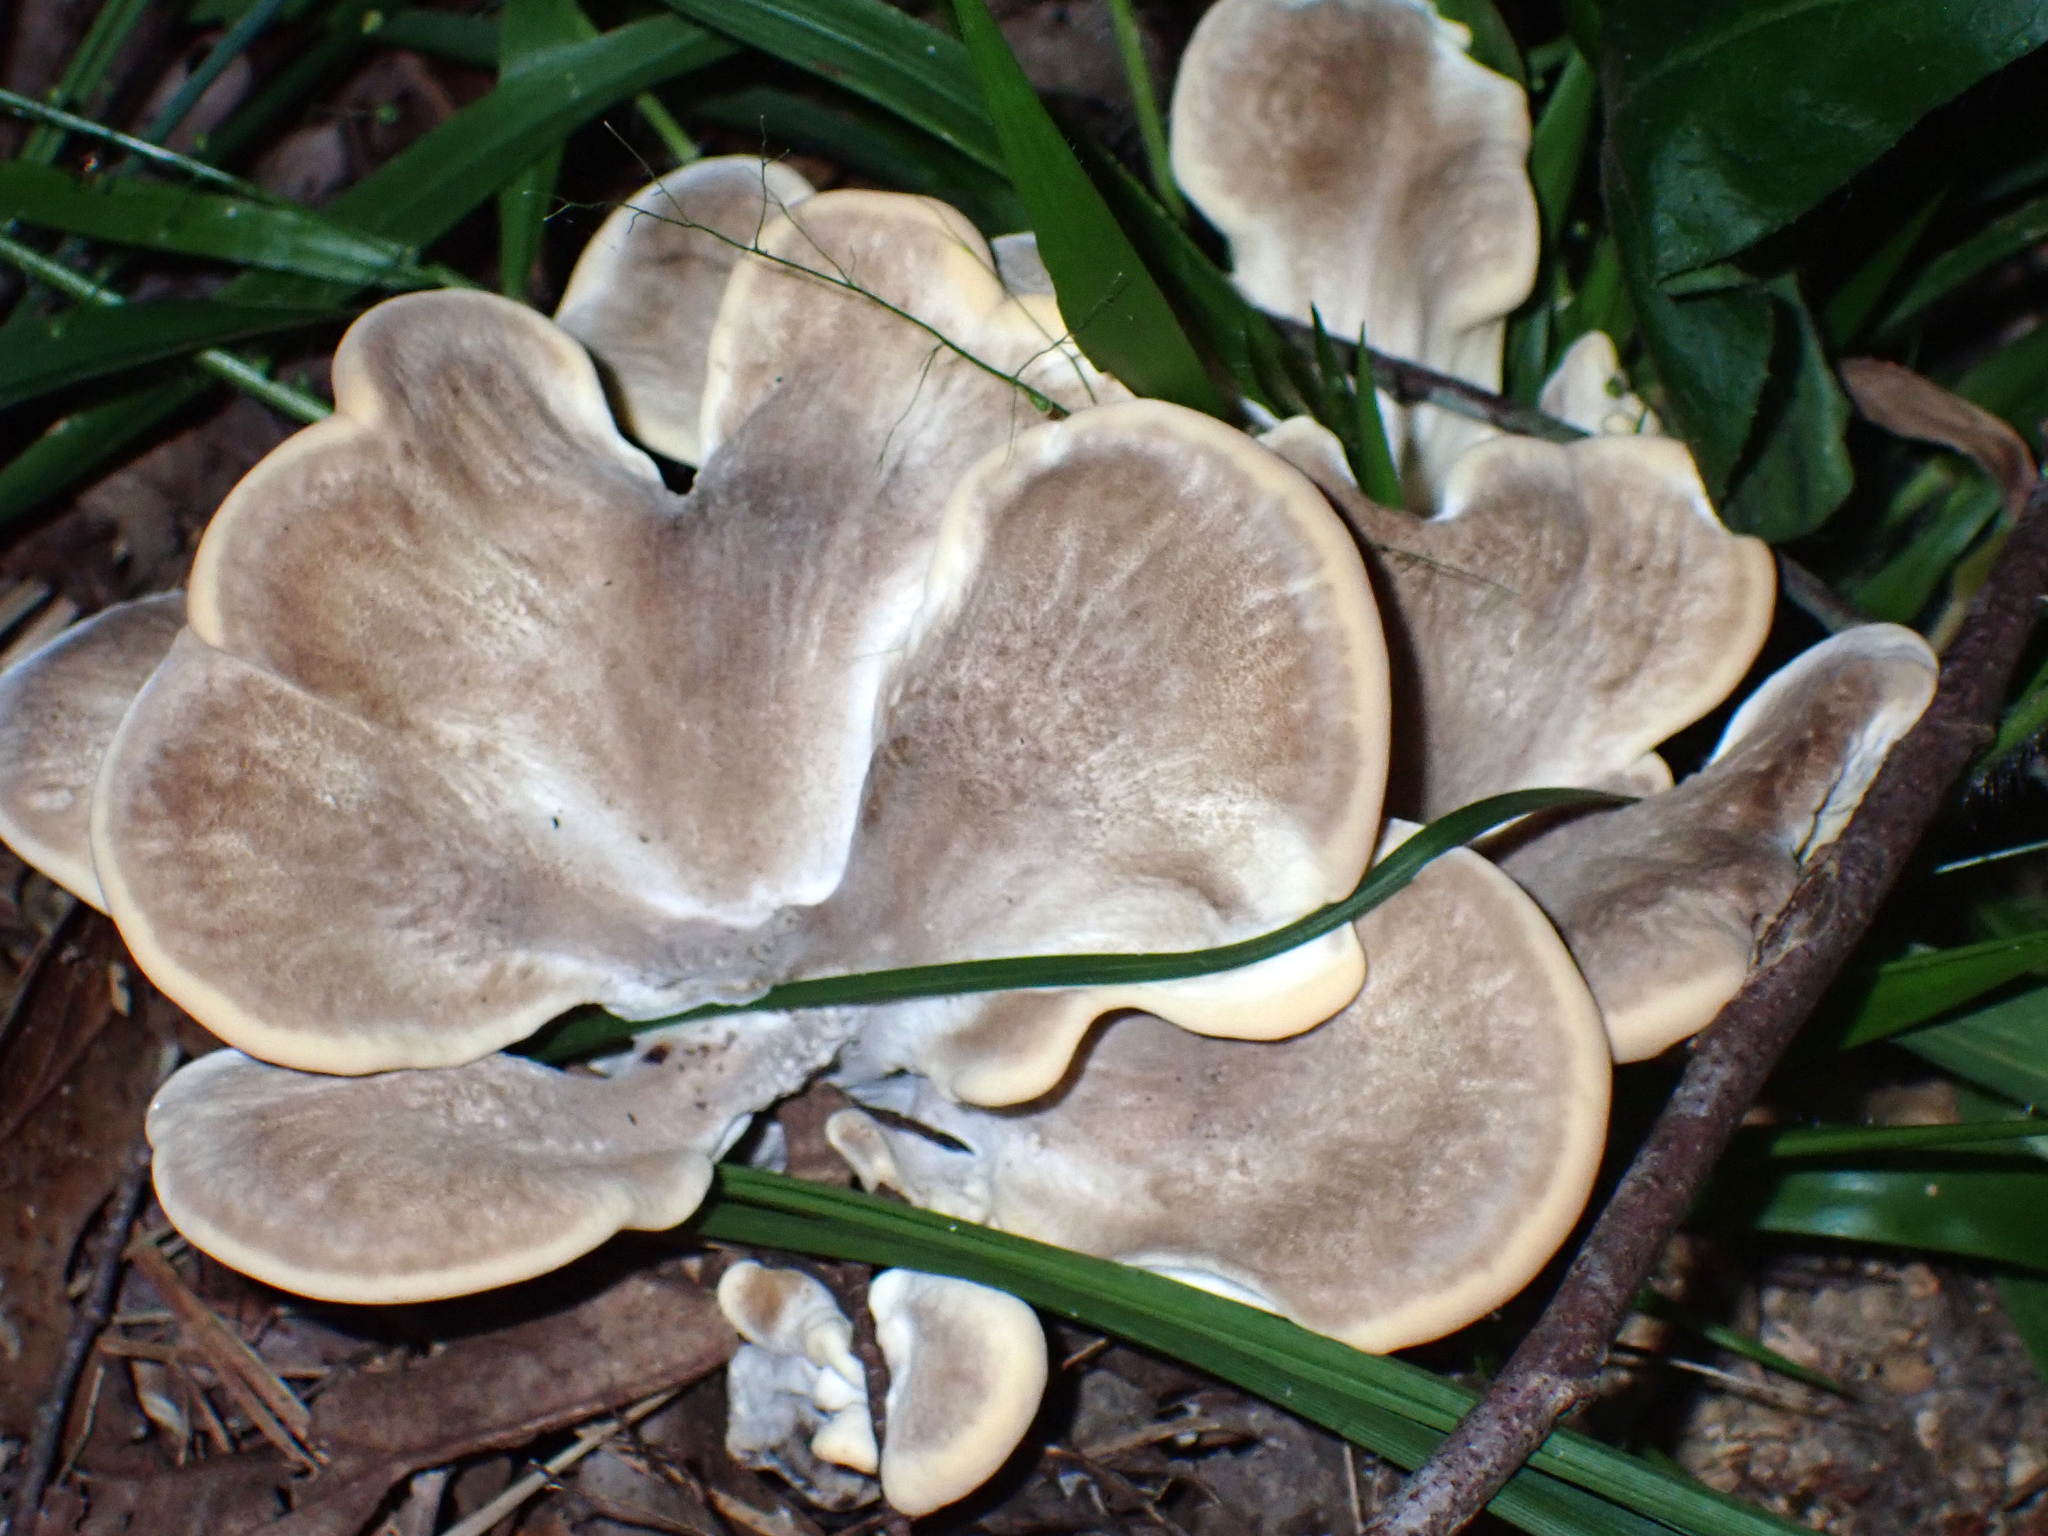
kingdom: Fungi
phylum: Basidiomycota
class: Agaricomycetes
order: Polyporales
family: Meripilaceae
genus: Meripilus
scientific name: Meripilus sumstinei
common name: Black-staining polypore
